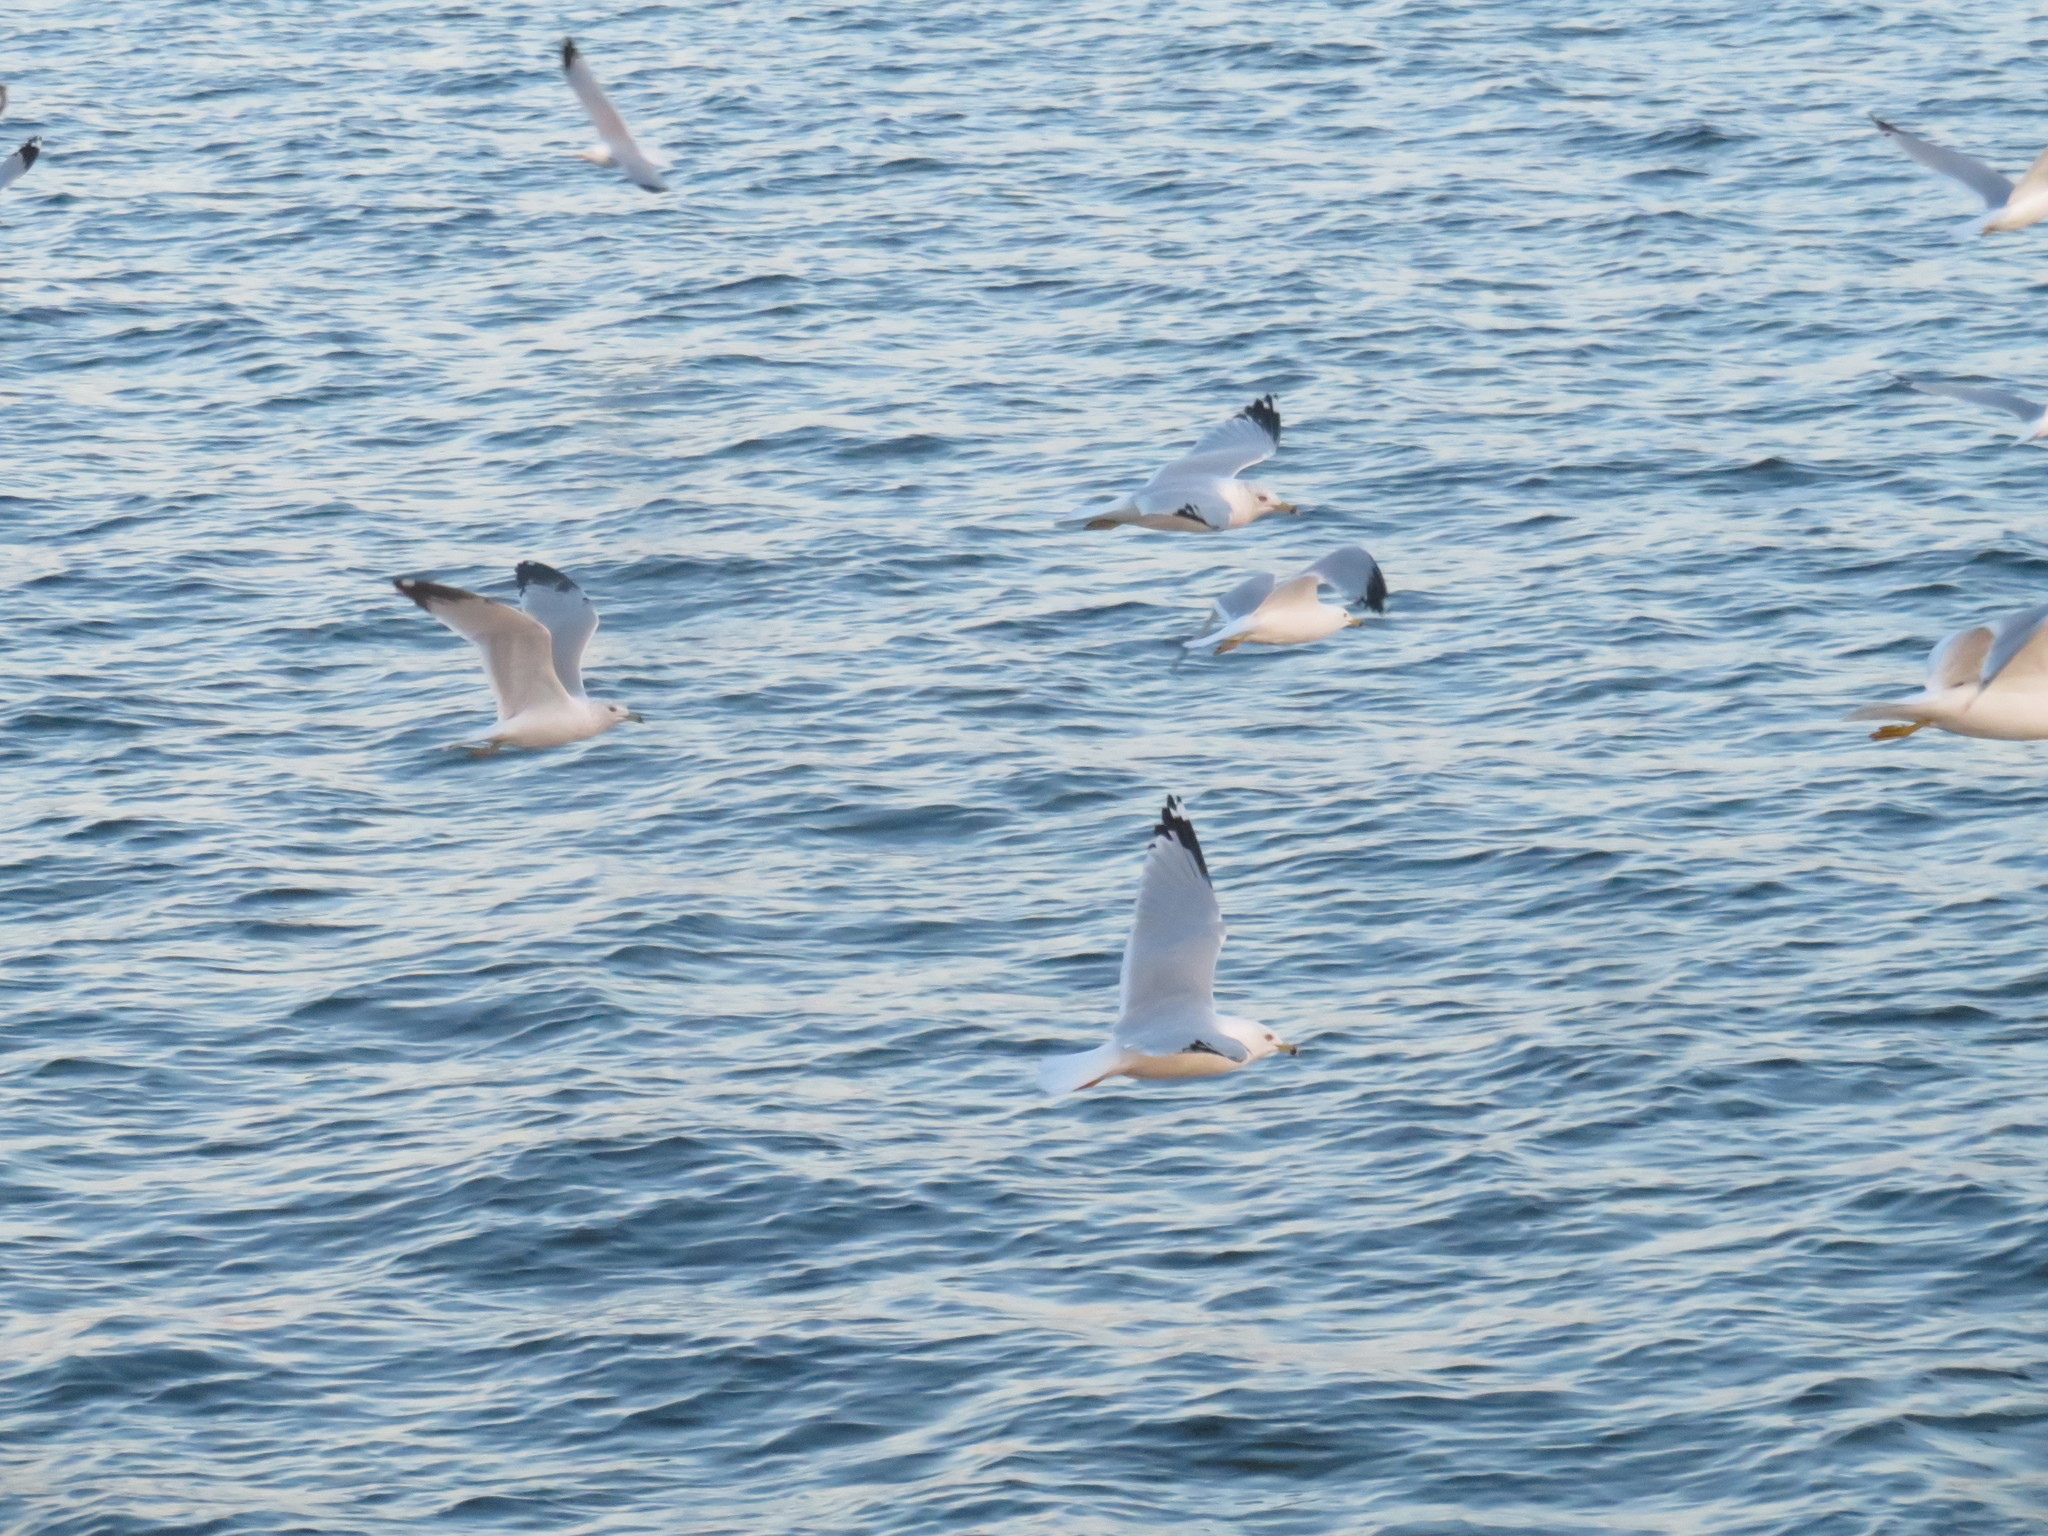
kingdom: Animalia
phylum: Chordata
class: Aves
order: Charadriiformes
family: Laridae
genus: Larus
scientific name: Larus delawarensis
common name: Ring-billed gull
